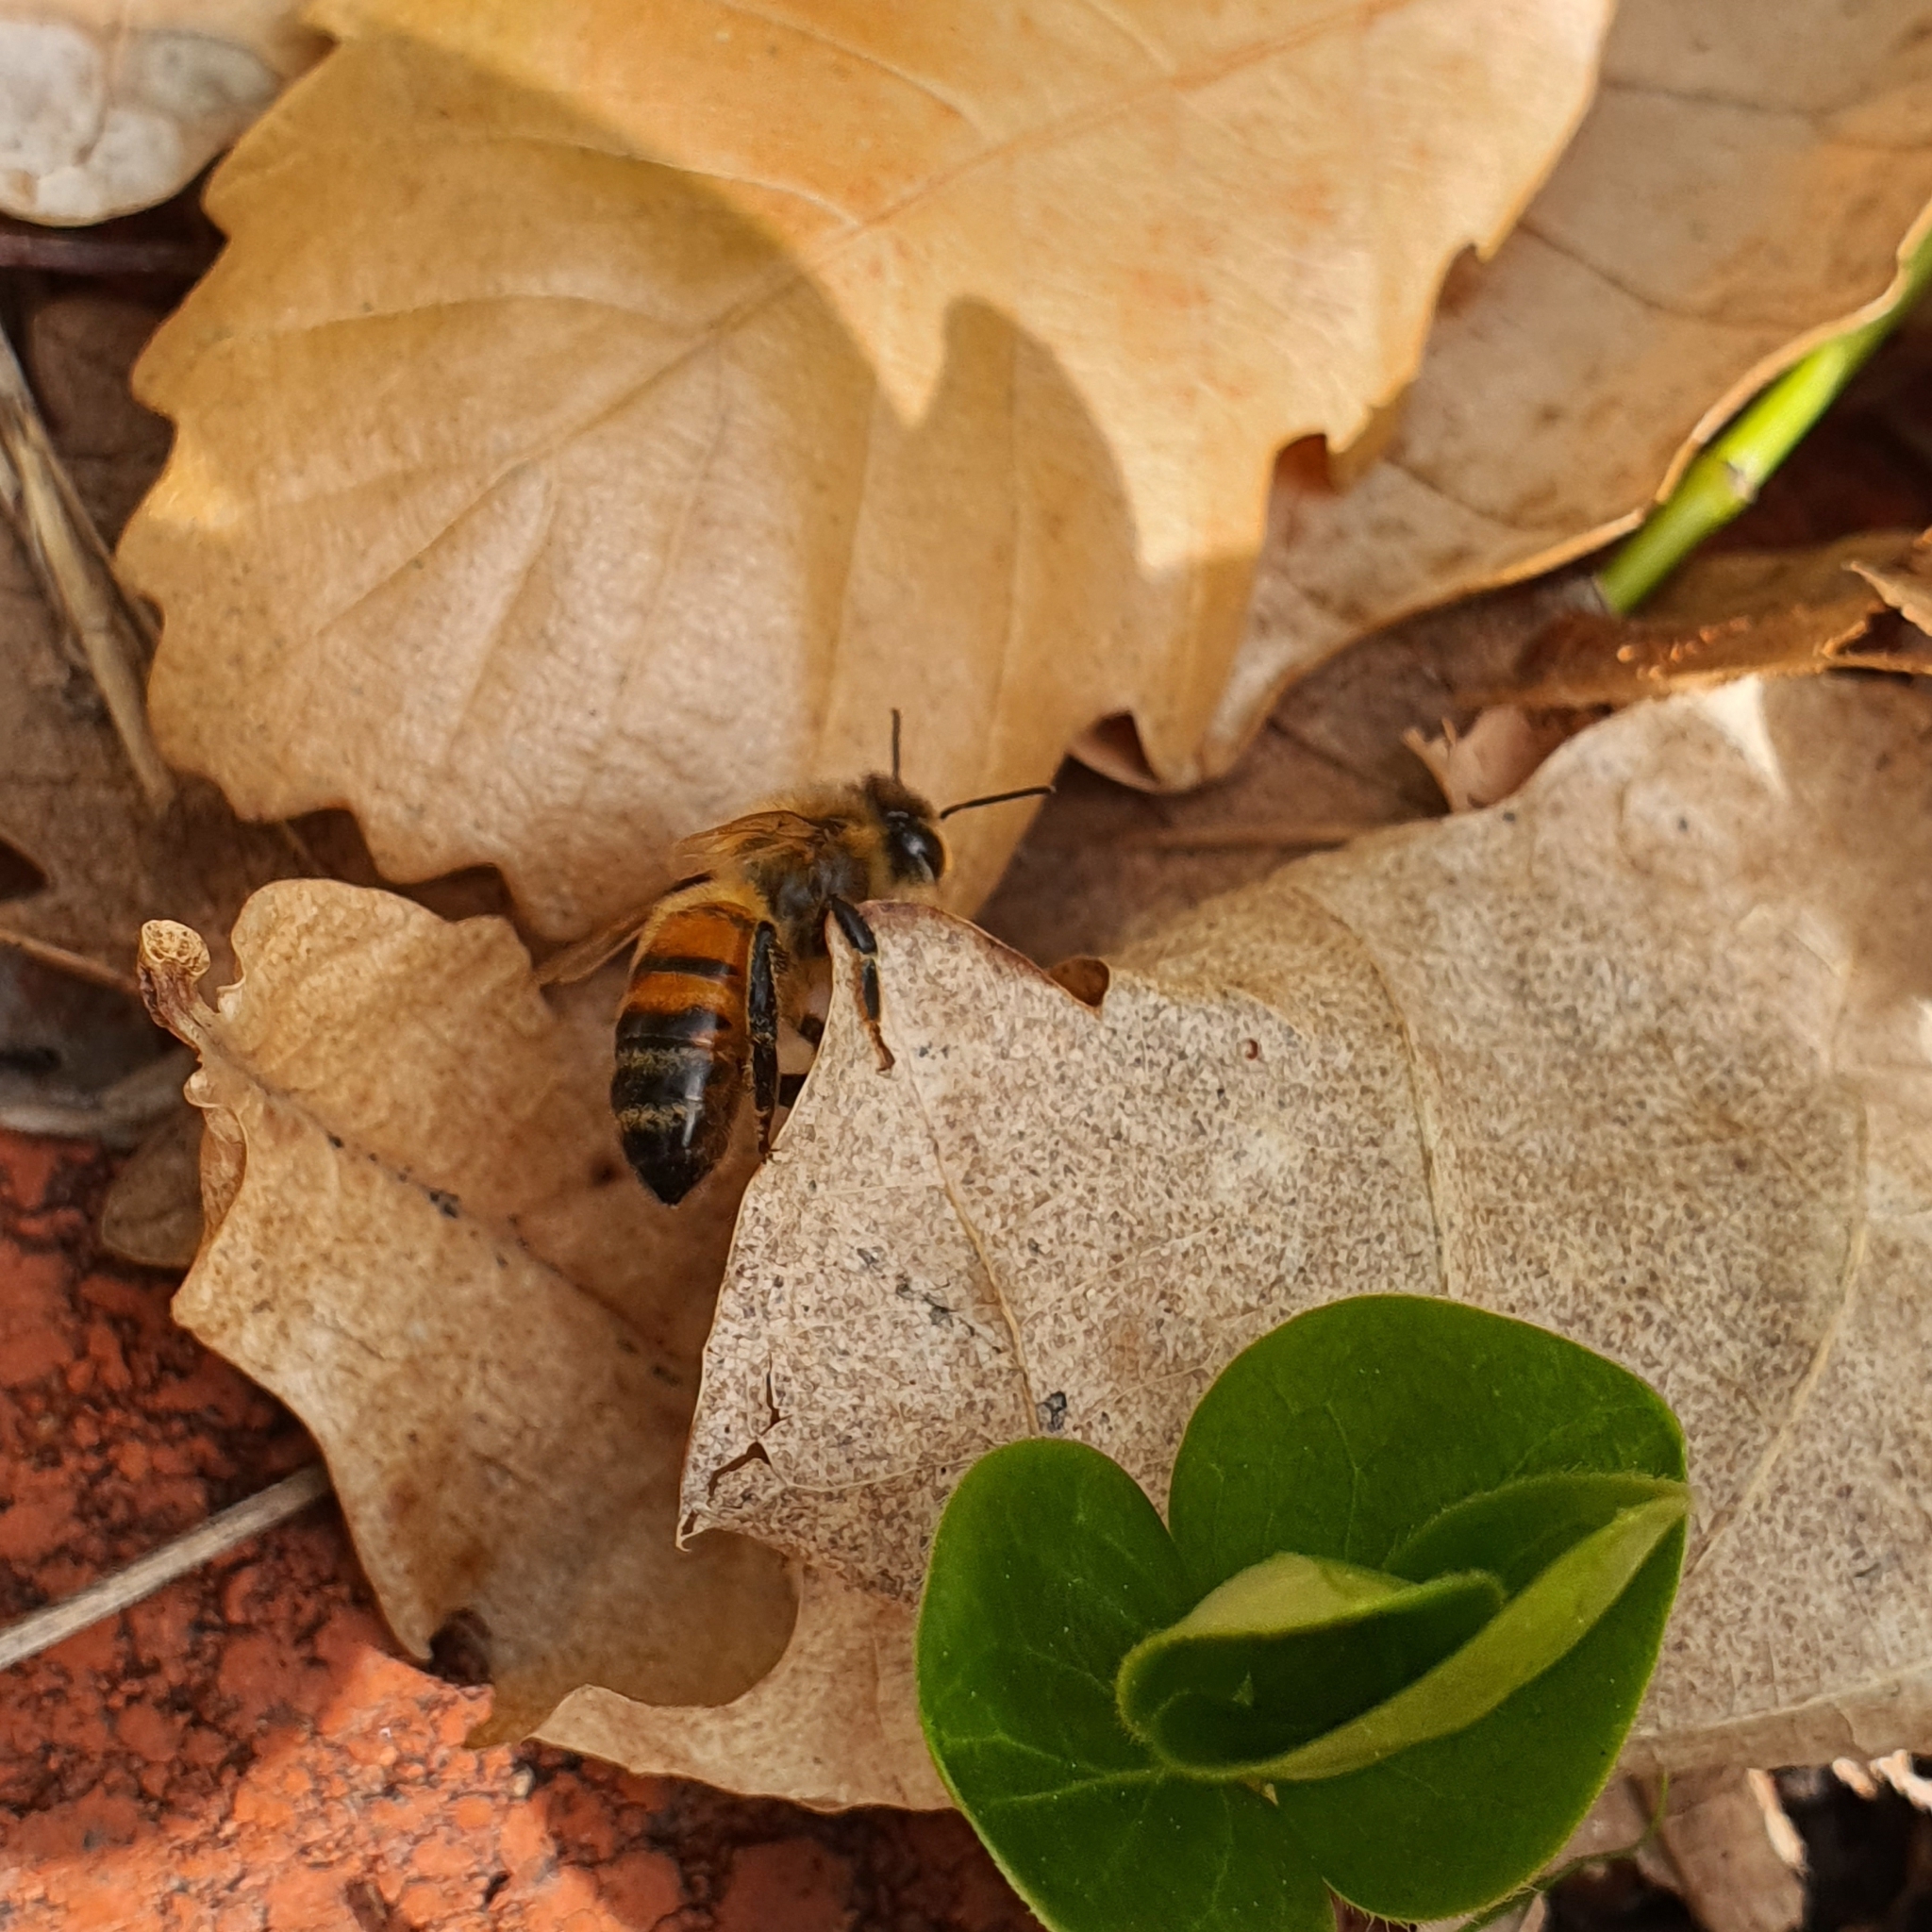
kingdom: Animalia
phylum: Arthropoda
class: Insecta
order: Hymenoptera
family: Apidae
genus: Apis
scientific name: Apis mellifera
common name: Honey bee
